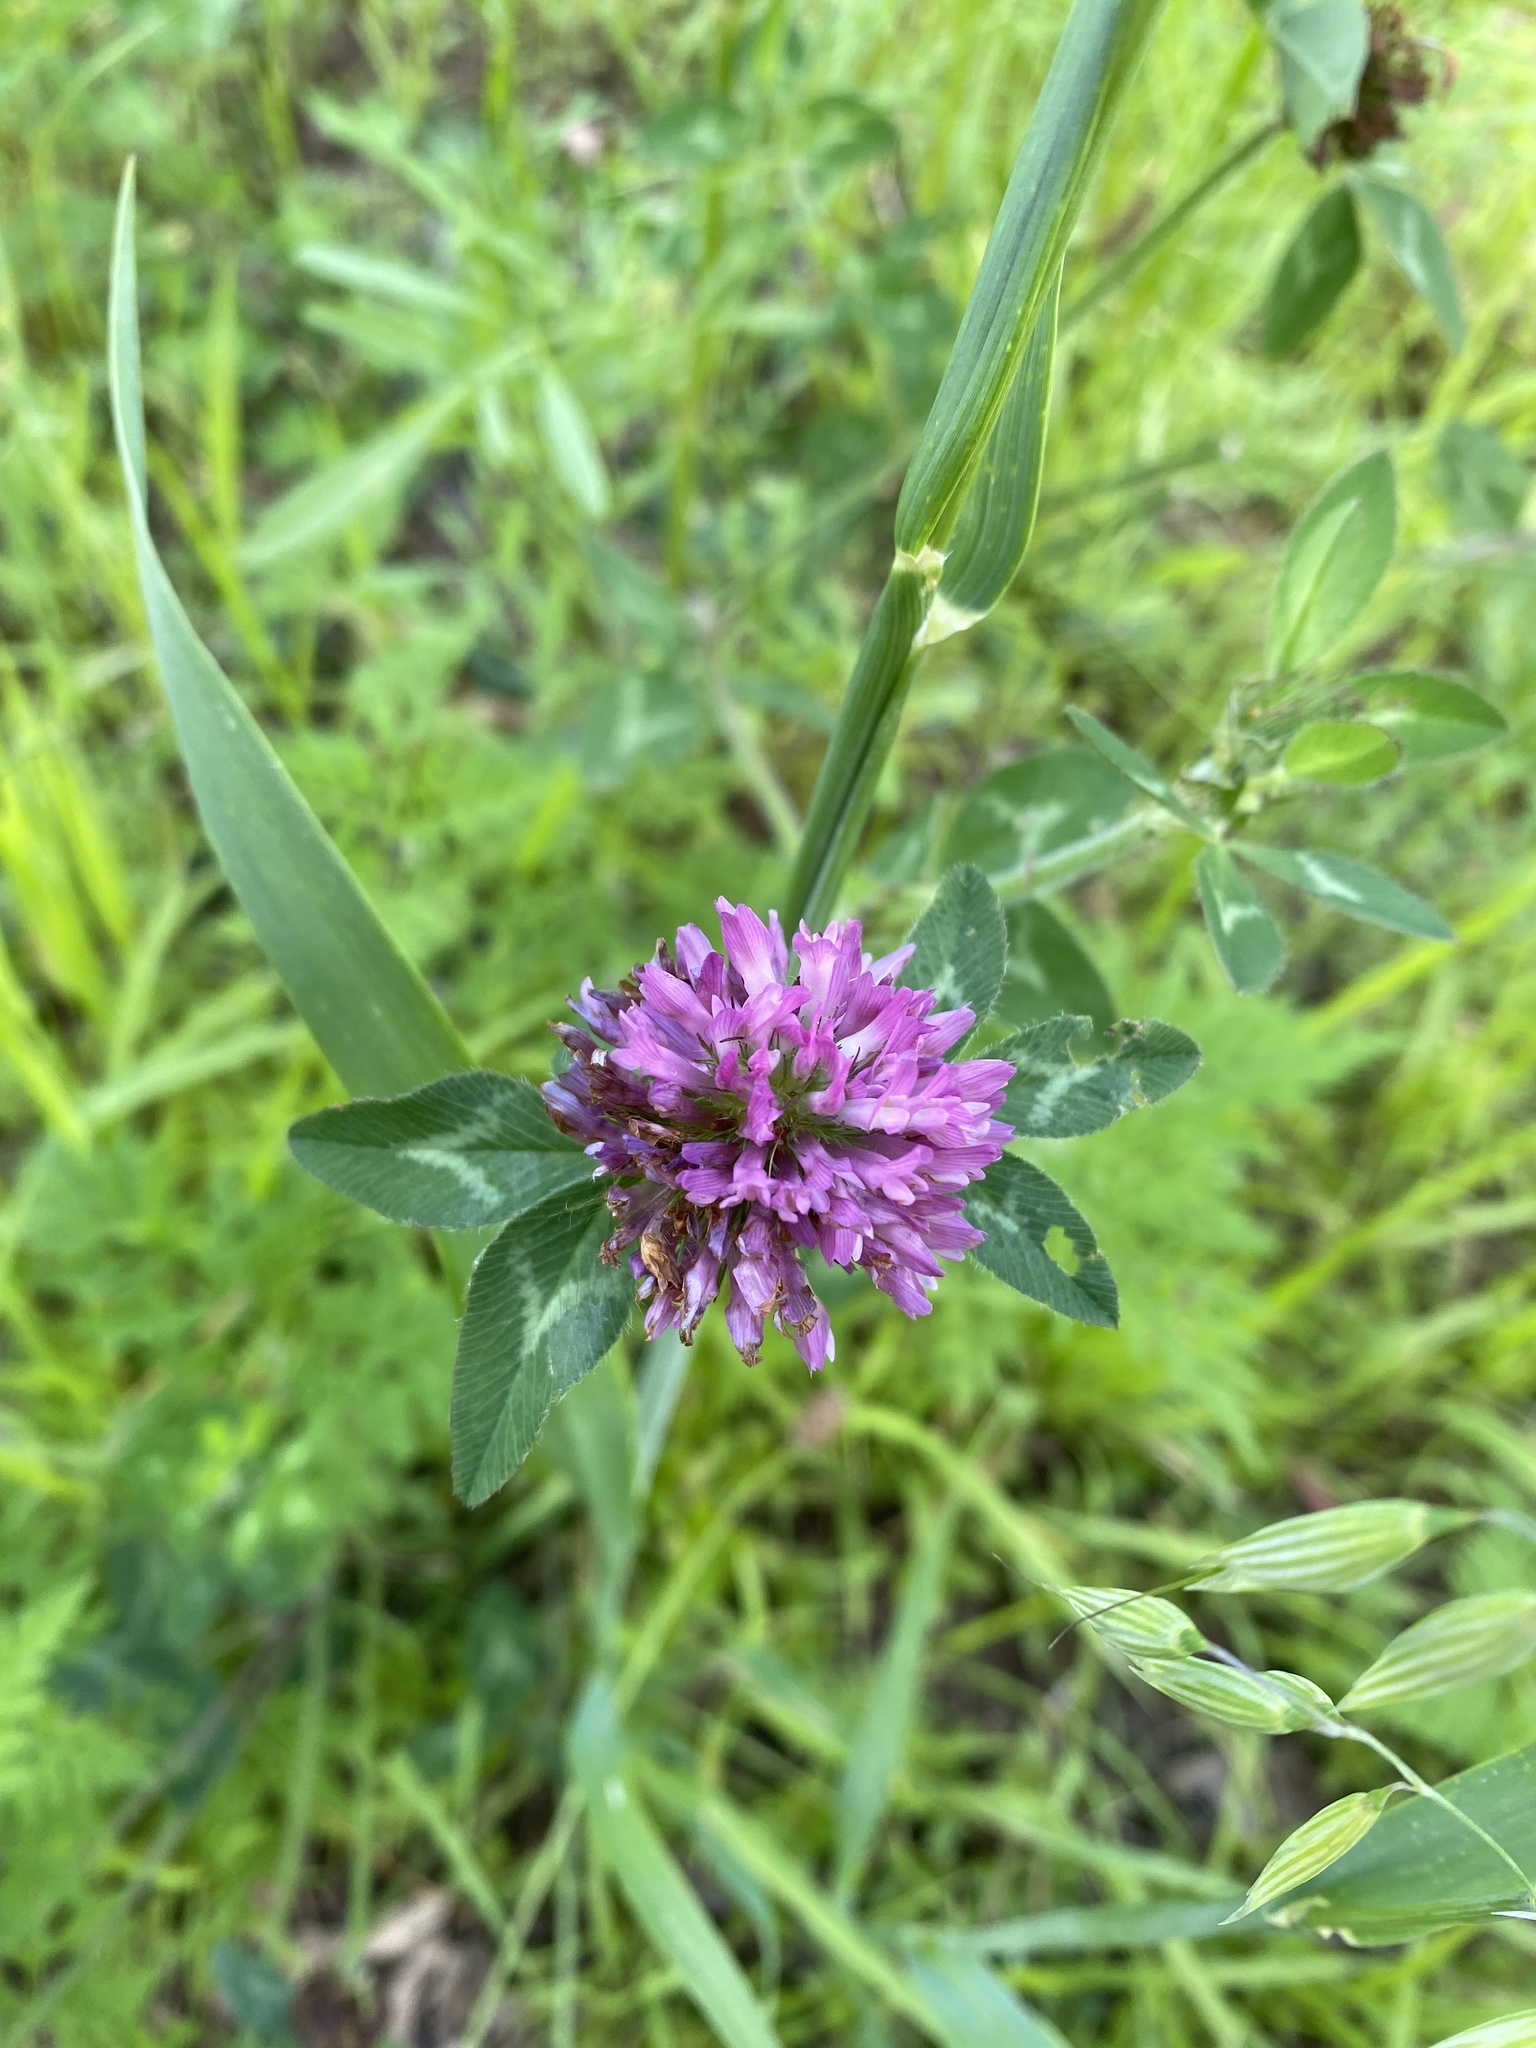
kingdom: Plantae
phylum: Tracheophyta
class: Magnoliopsida
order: Fabales
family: Fabaceae
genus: Trifolium
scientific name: Trifolium pratense
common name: Red clover
